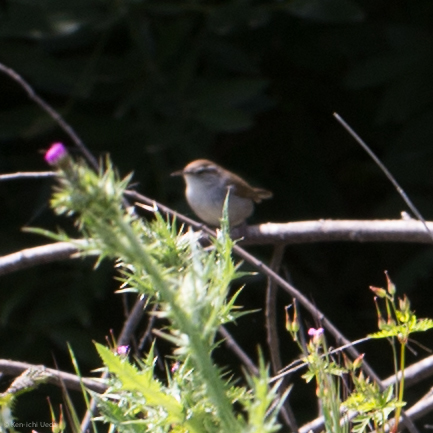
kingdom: Animalia
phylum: Chordata
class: Aves
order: Passeriformes
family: Troglodytidae
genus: Thryomanes
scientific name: Thryomanes bewickii
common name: Bewick's wren
